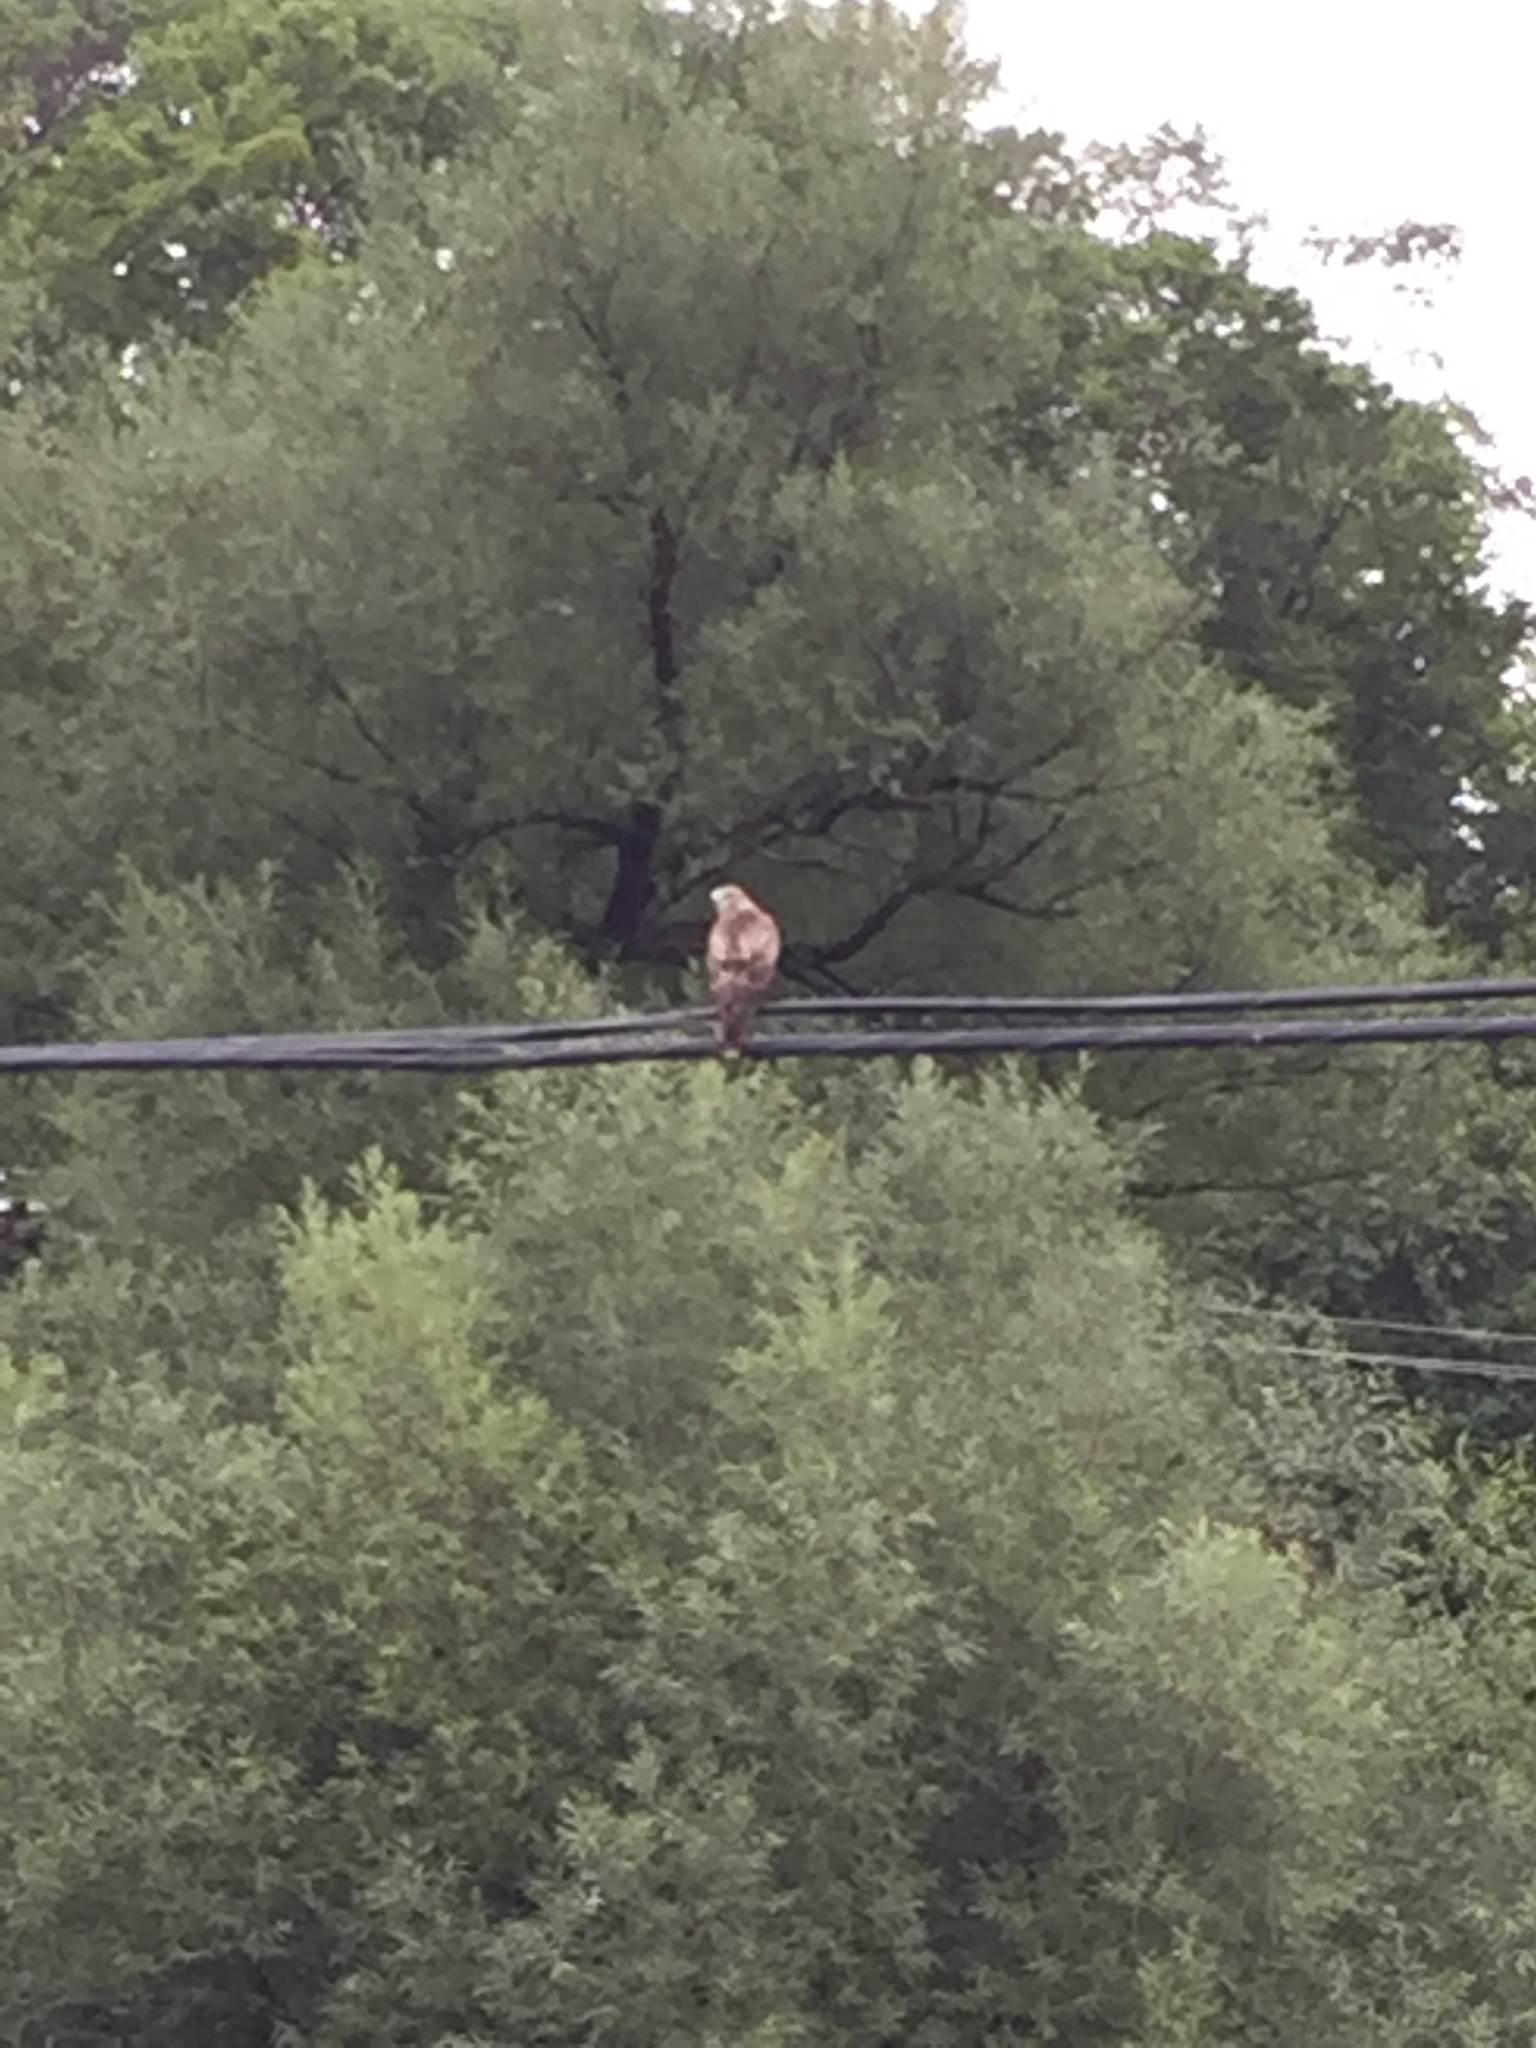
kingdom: Animalia
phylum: Chordata
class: Aves
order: Accipitriformes
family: Accipitridae
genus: Buteo
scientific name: Buteo jamaicensis
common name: Red-tailed hawk
